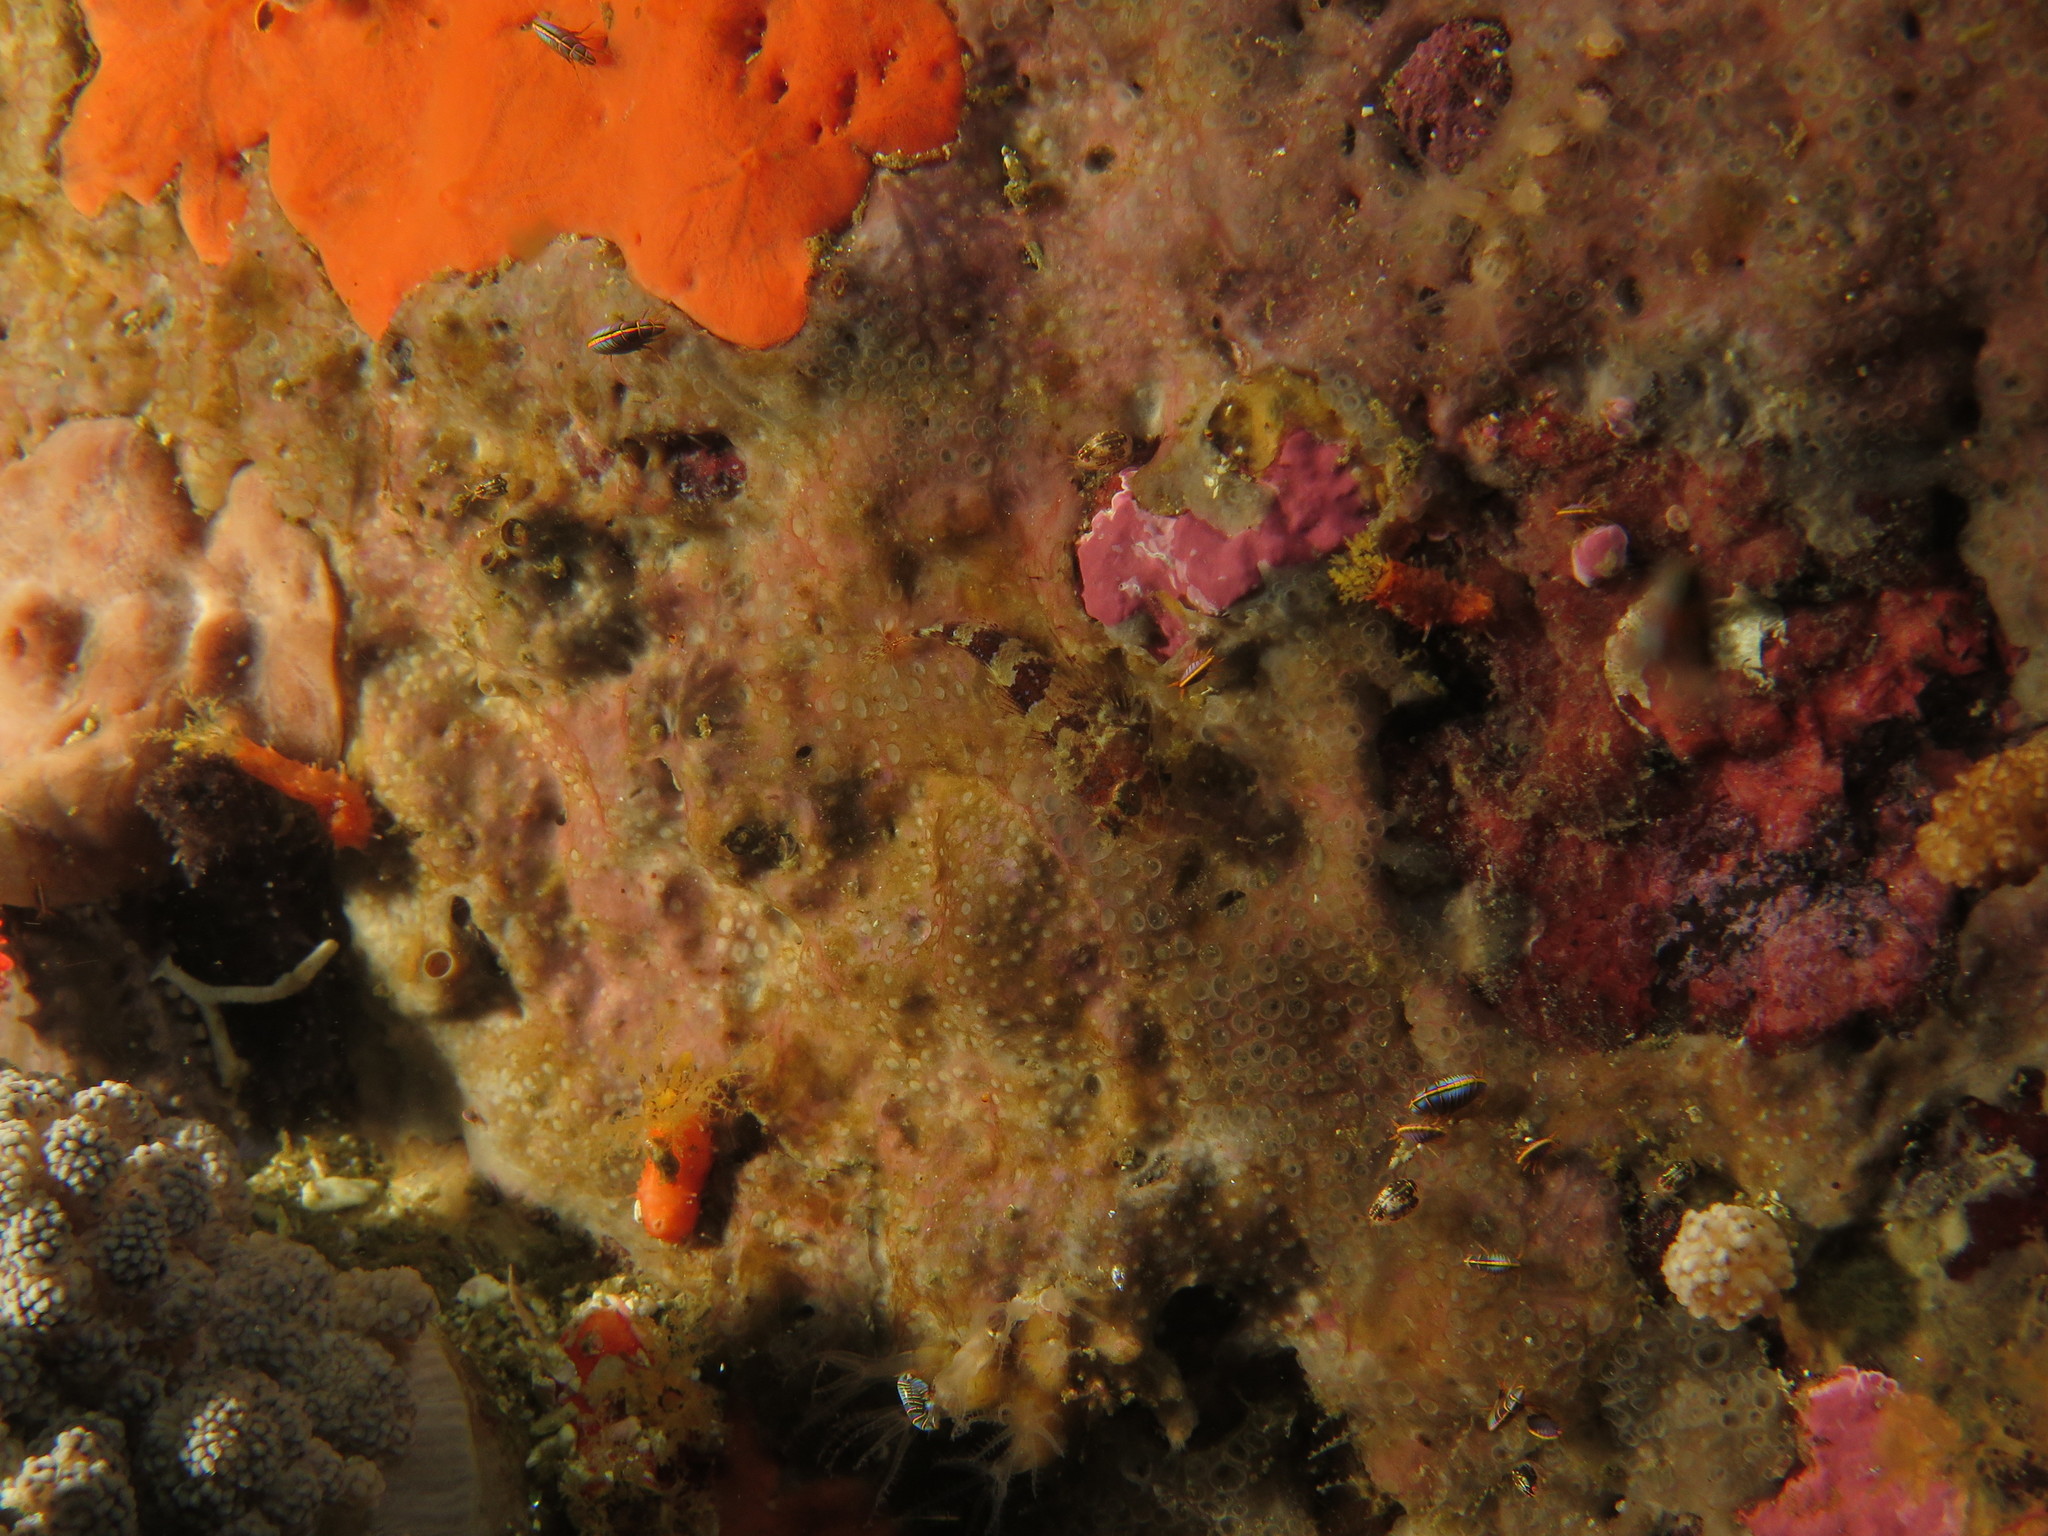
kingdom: Animalia
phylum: Arthropoda
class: Malacostraca
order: Amphipoda
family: Iphimediidae
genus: Iphimedia
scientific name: Iphimedia gibba
